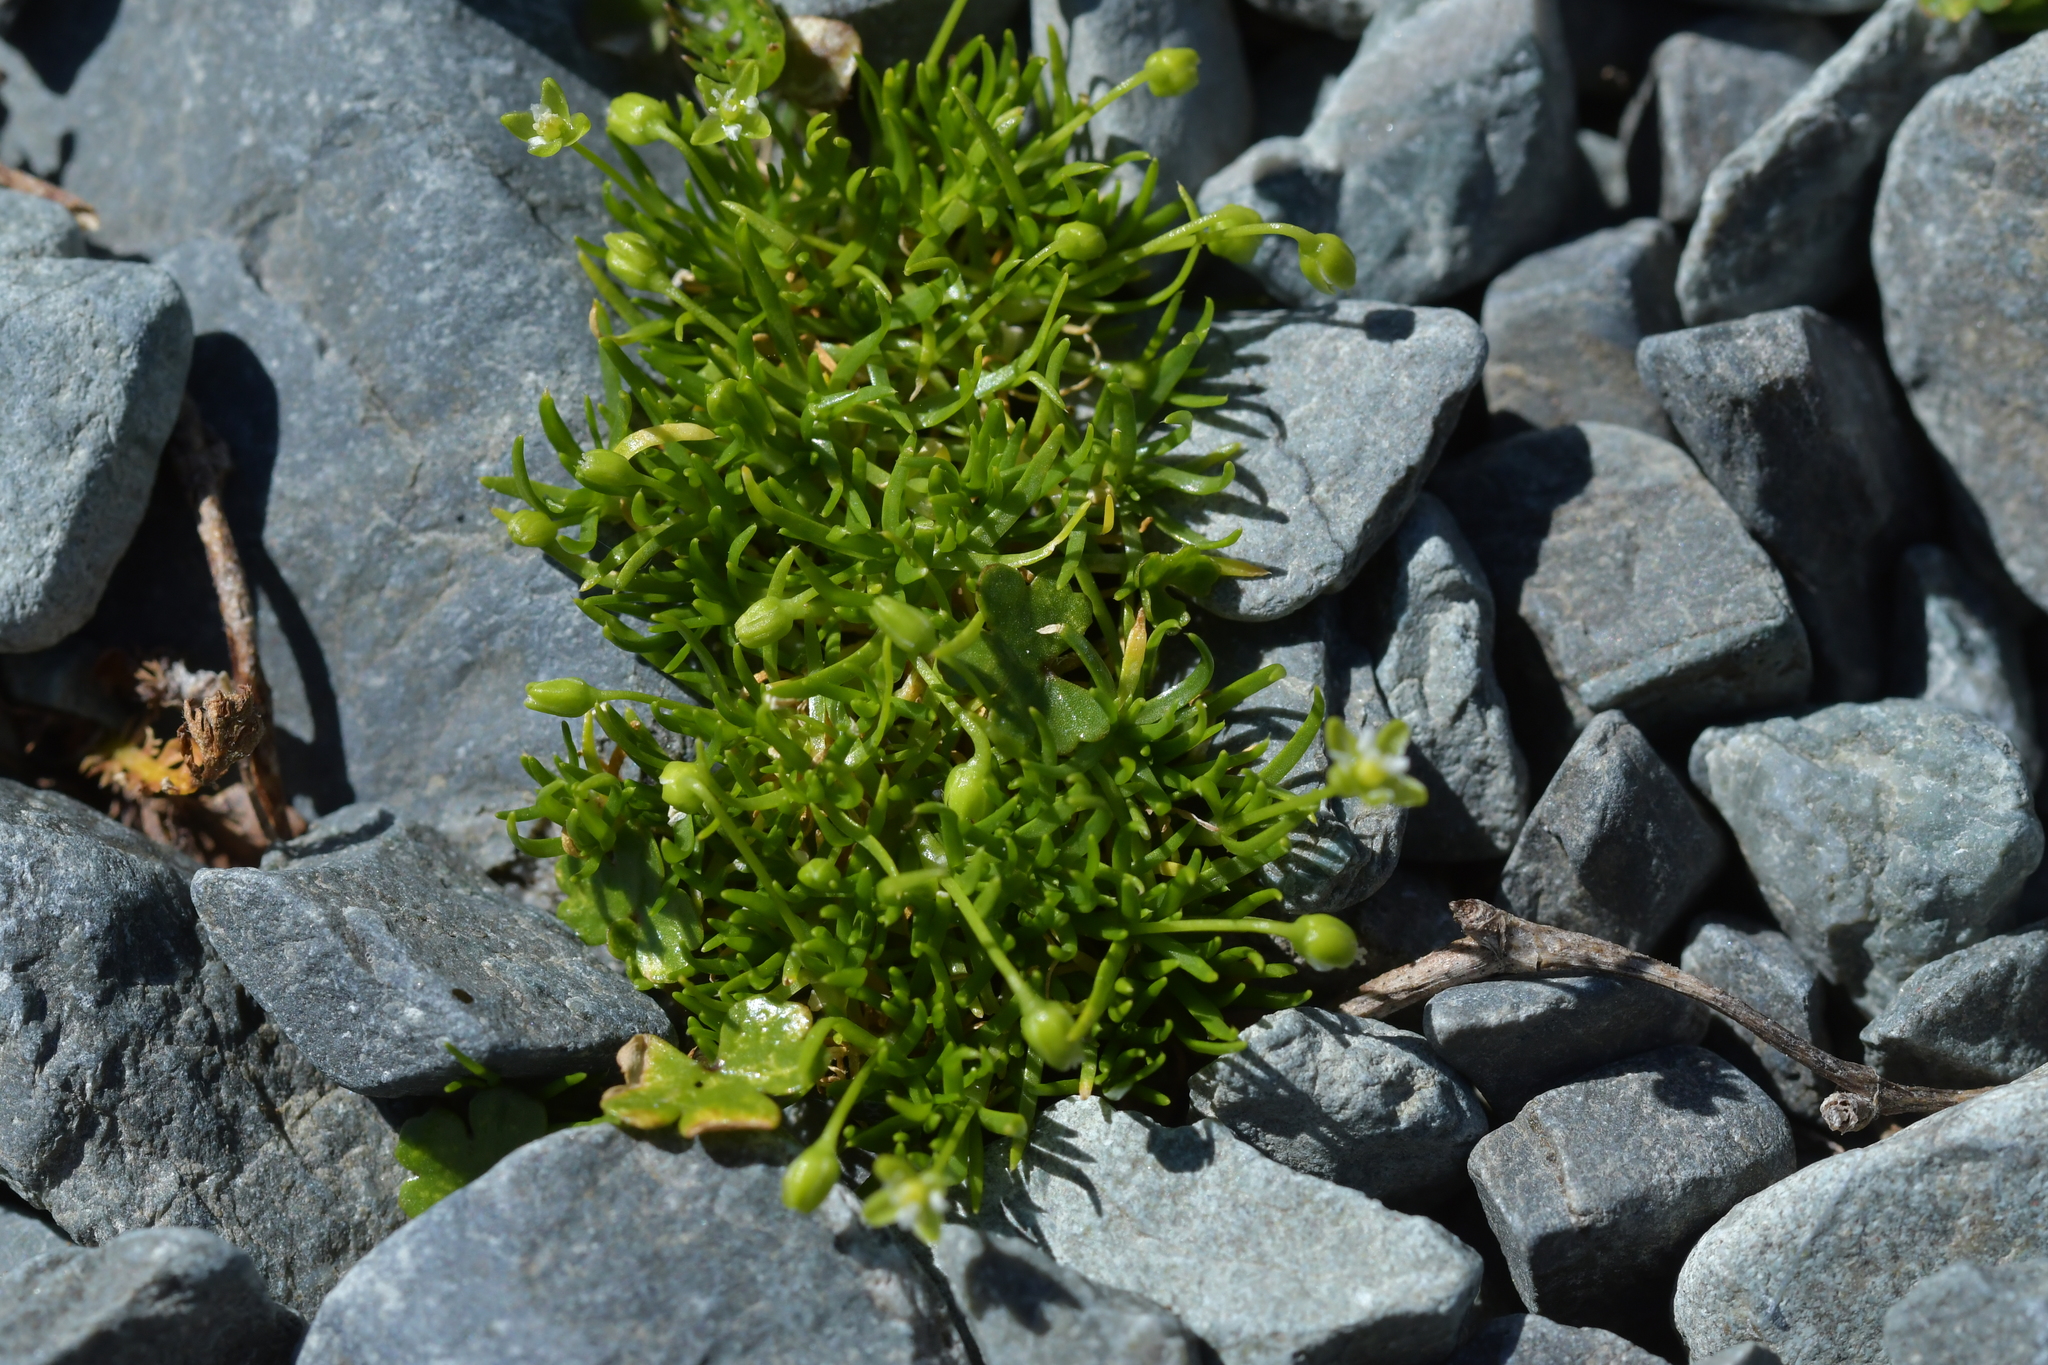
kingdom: Plantae
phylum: Tracheophyta
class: Magnoliopsida
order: Caryophyllales
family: Caryophyllaceae
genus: Sagina
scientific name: Sagina procumbens
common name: Procumbent pearlwort
